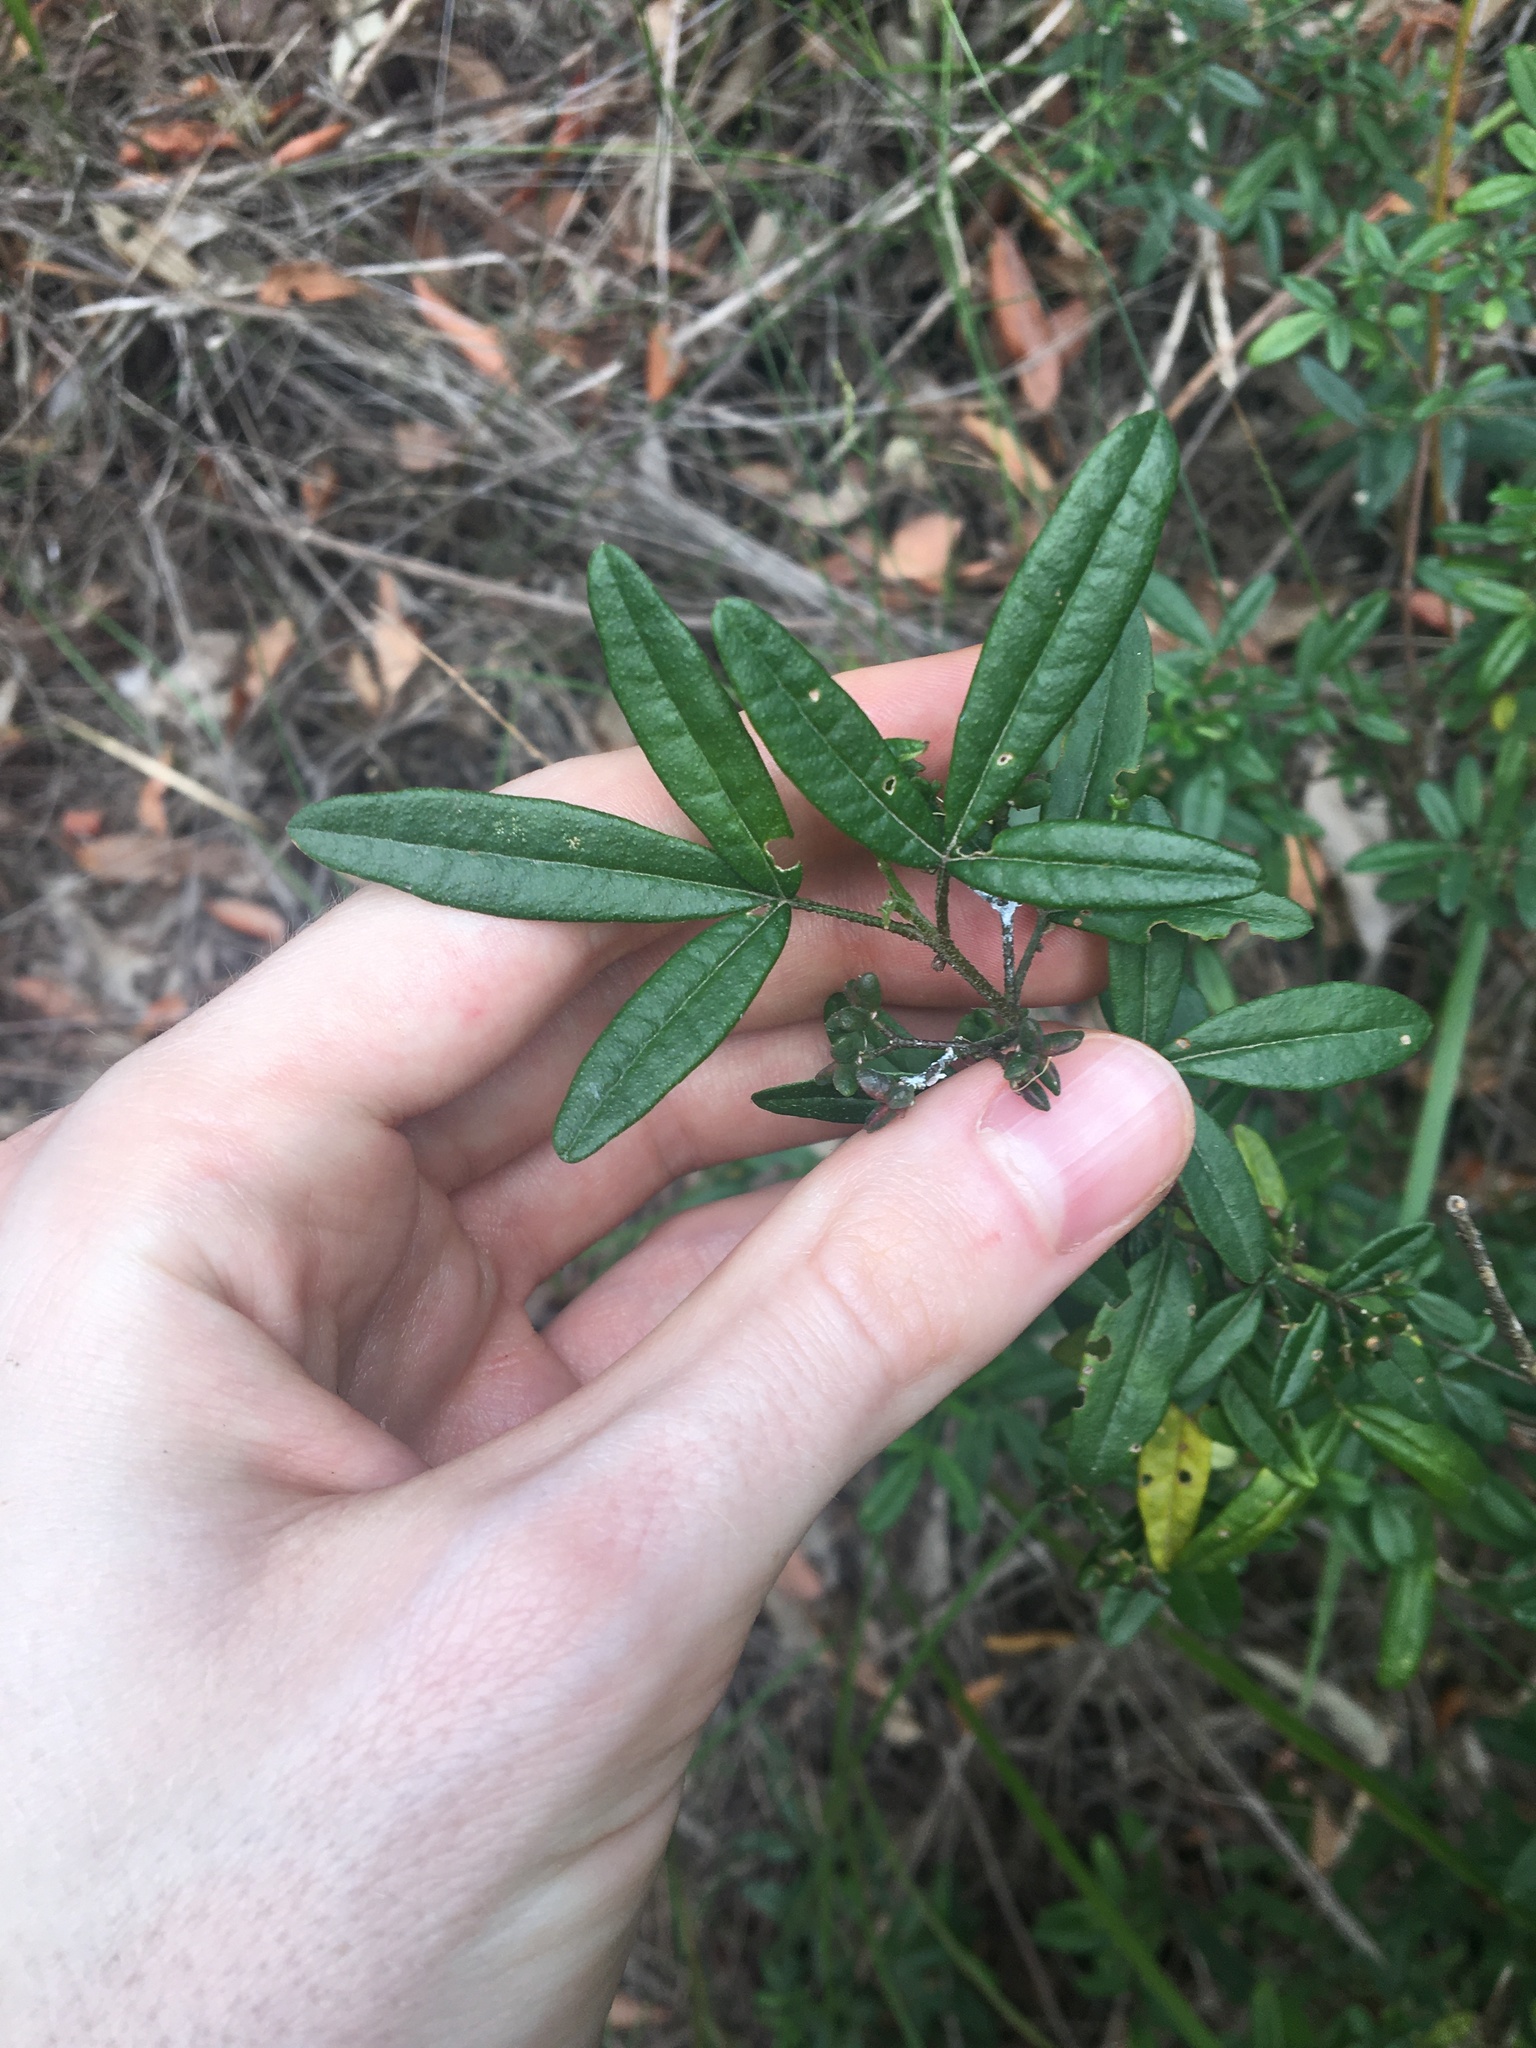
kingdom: Plantae
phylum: Tracheophyta
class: Magnoliopsida
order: Sapindales
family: Rutaceae
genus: Zieria
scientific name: Zieria smithii
